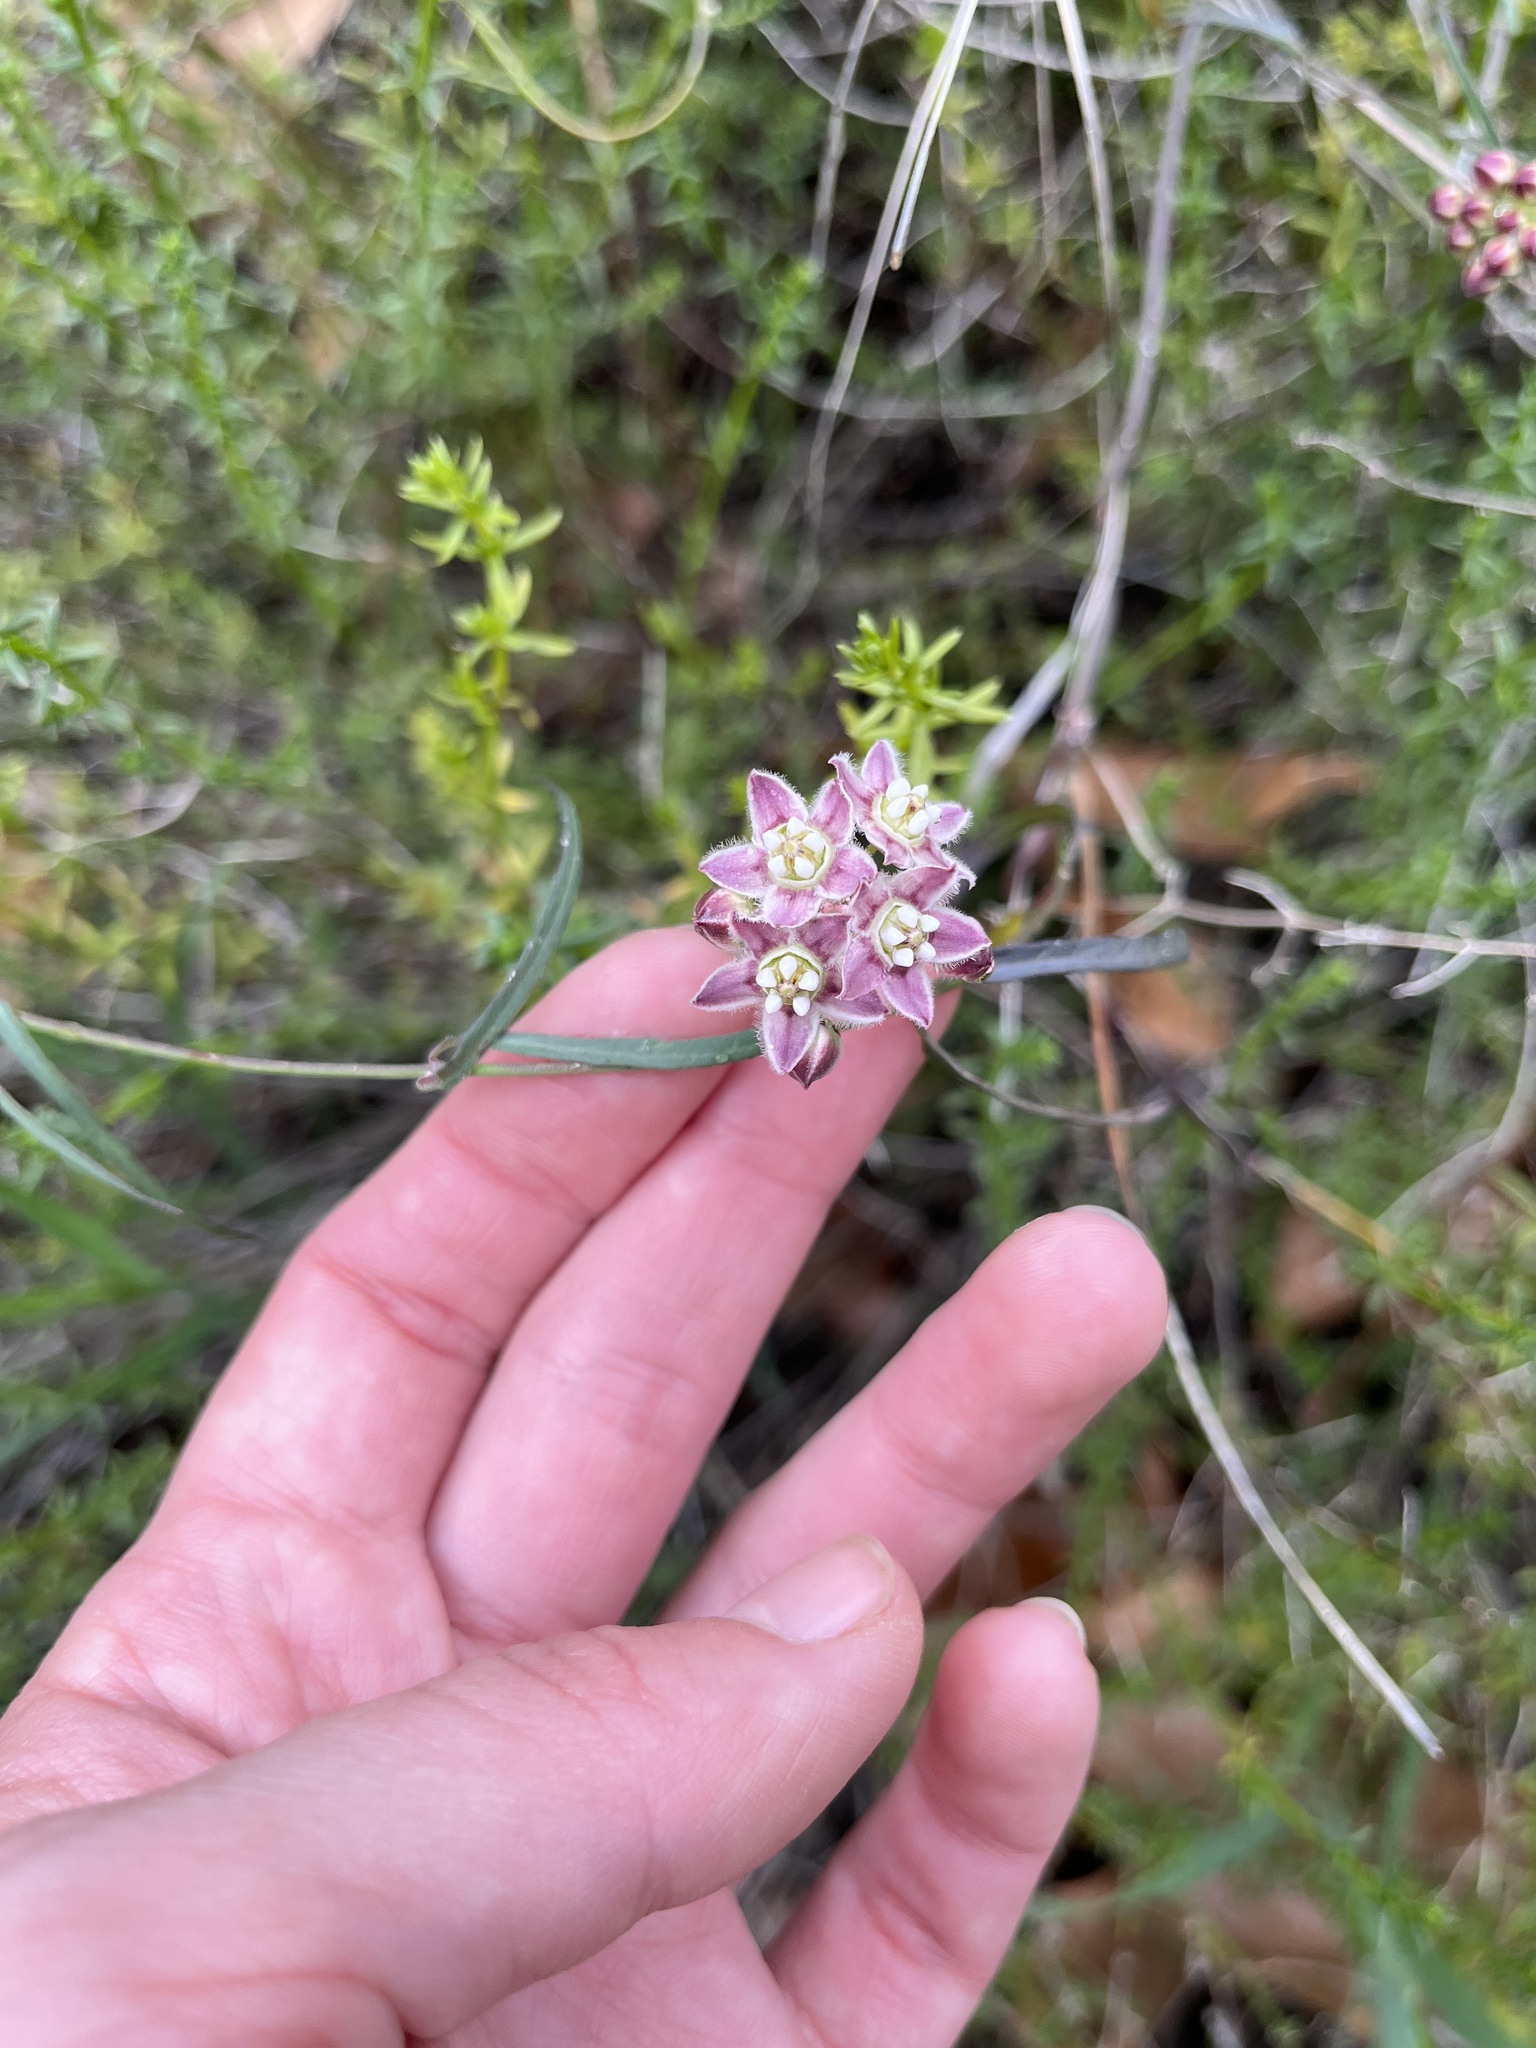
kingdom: Plantae
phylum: Tracheophyta
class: Magnoliopsida
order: Gentianales
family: Apocynaceae
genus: Funastrum
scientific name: Funastrum heterophyllum
